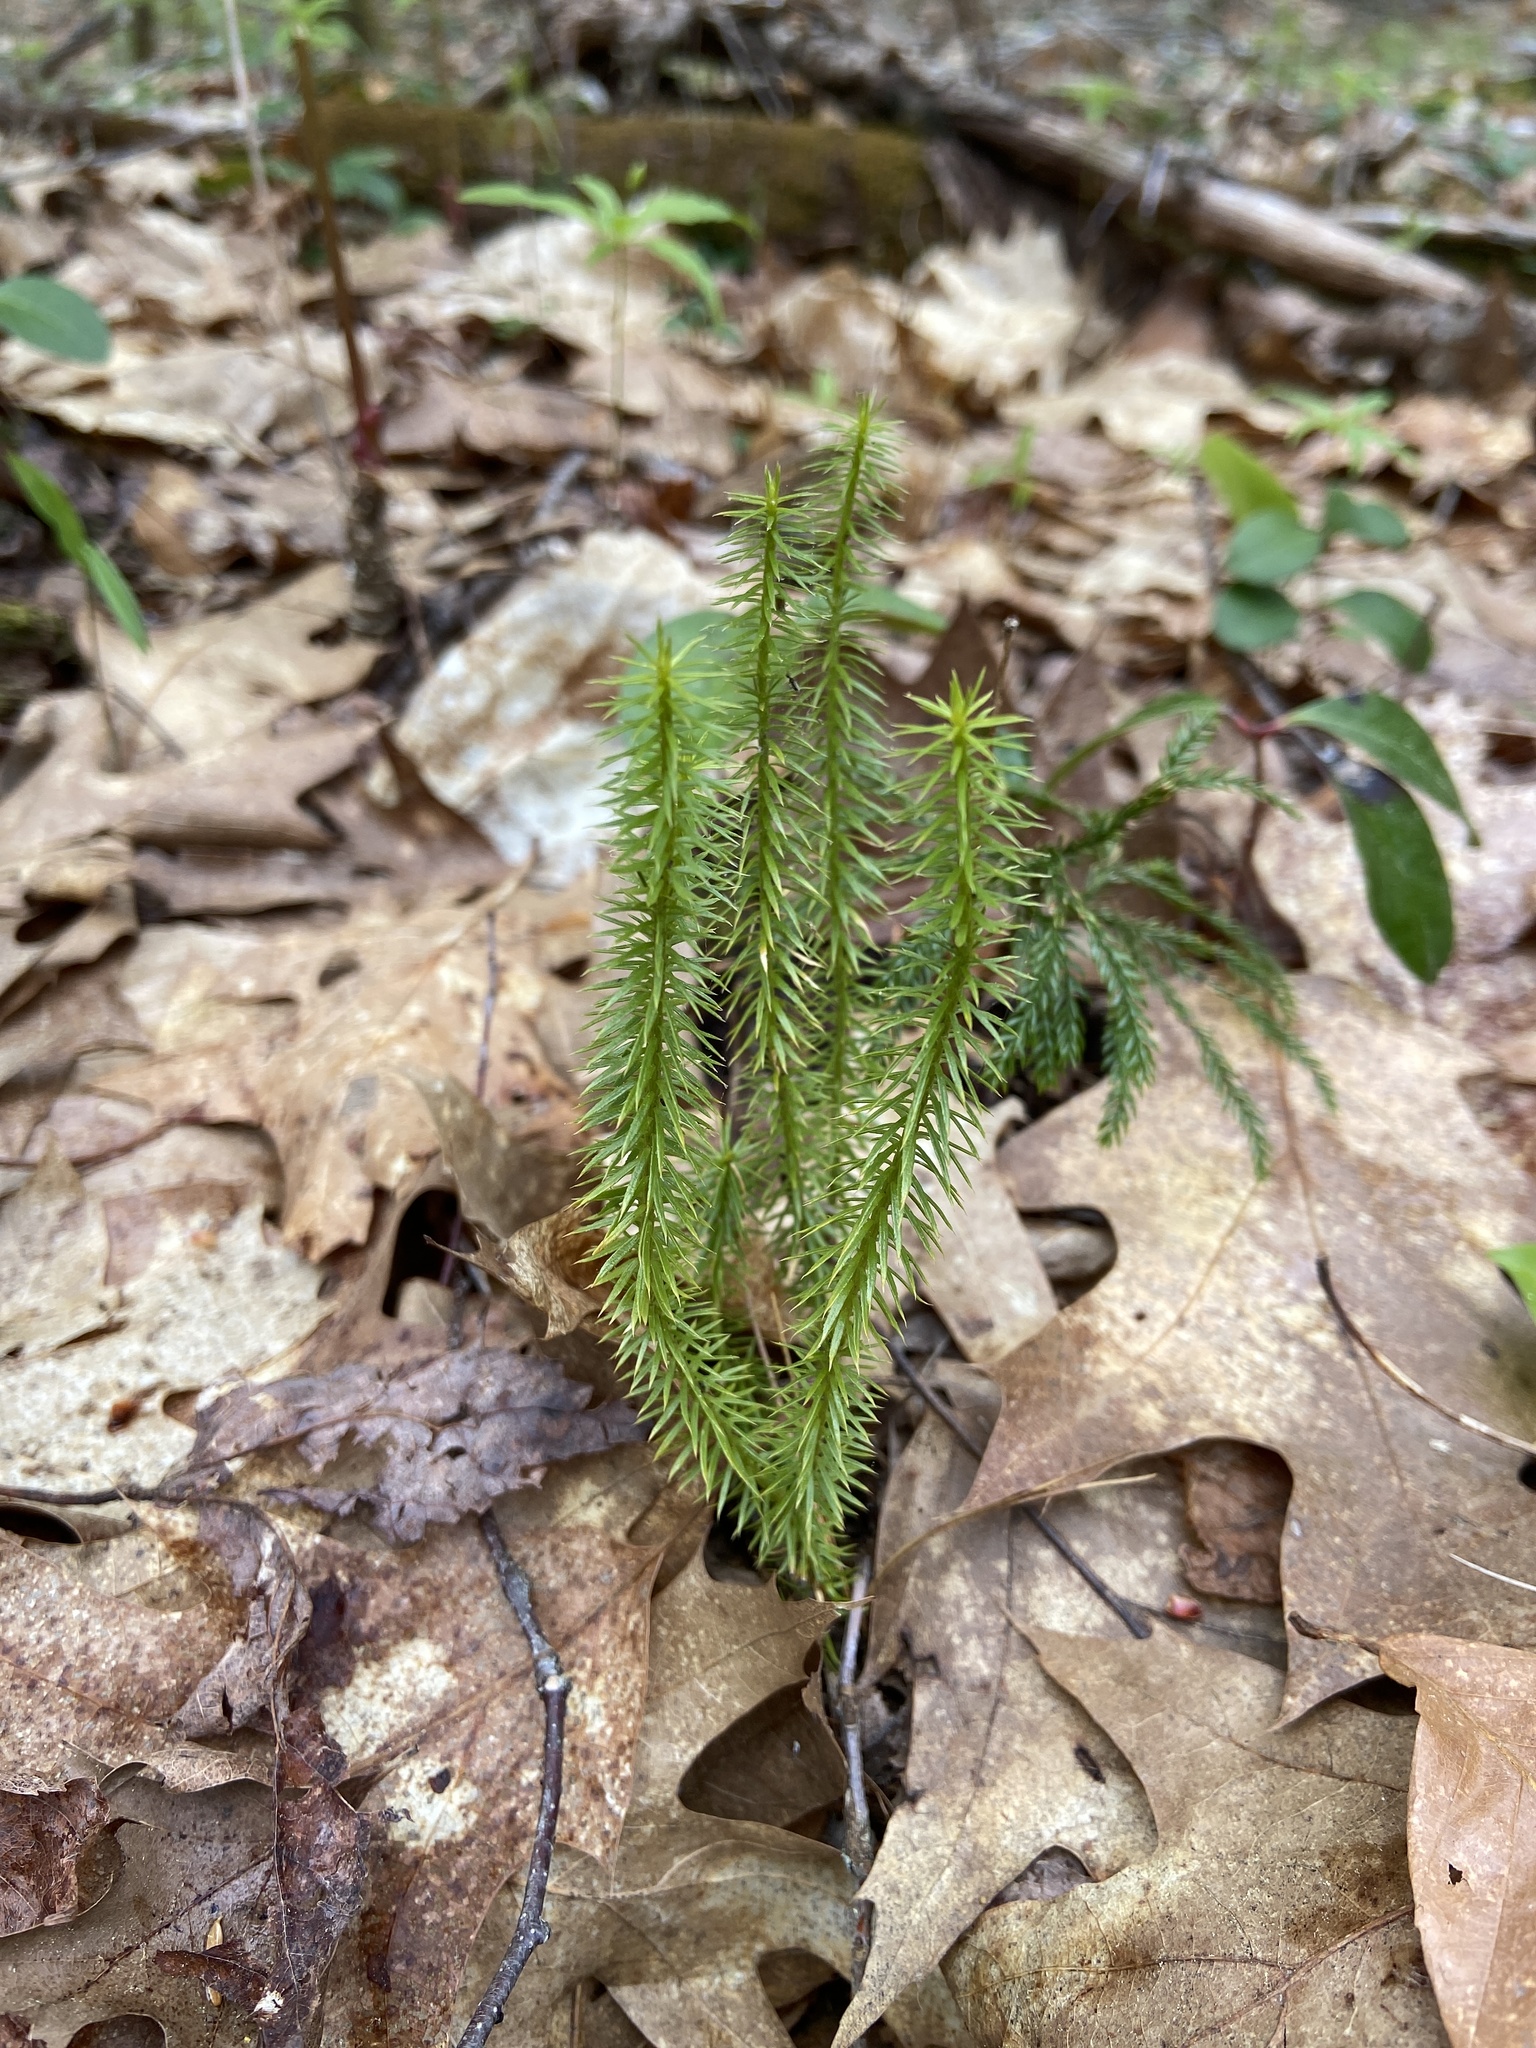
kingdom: Plantae
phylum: Tracheophyta
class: Lycopodiopsida
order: Lycopodiales
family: Lycopodiaceae
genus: Spinulum
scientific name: Spinulum annotinum
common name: Interrupted club-moss
